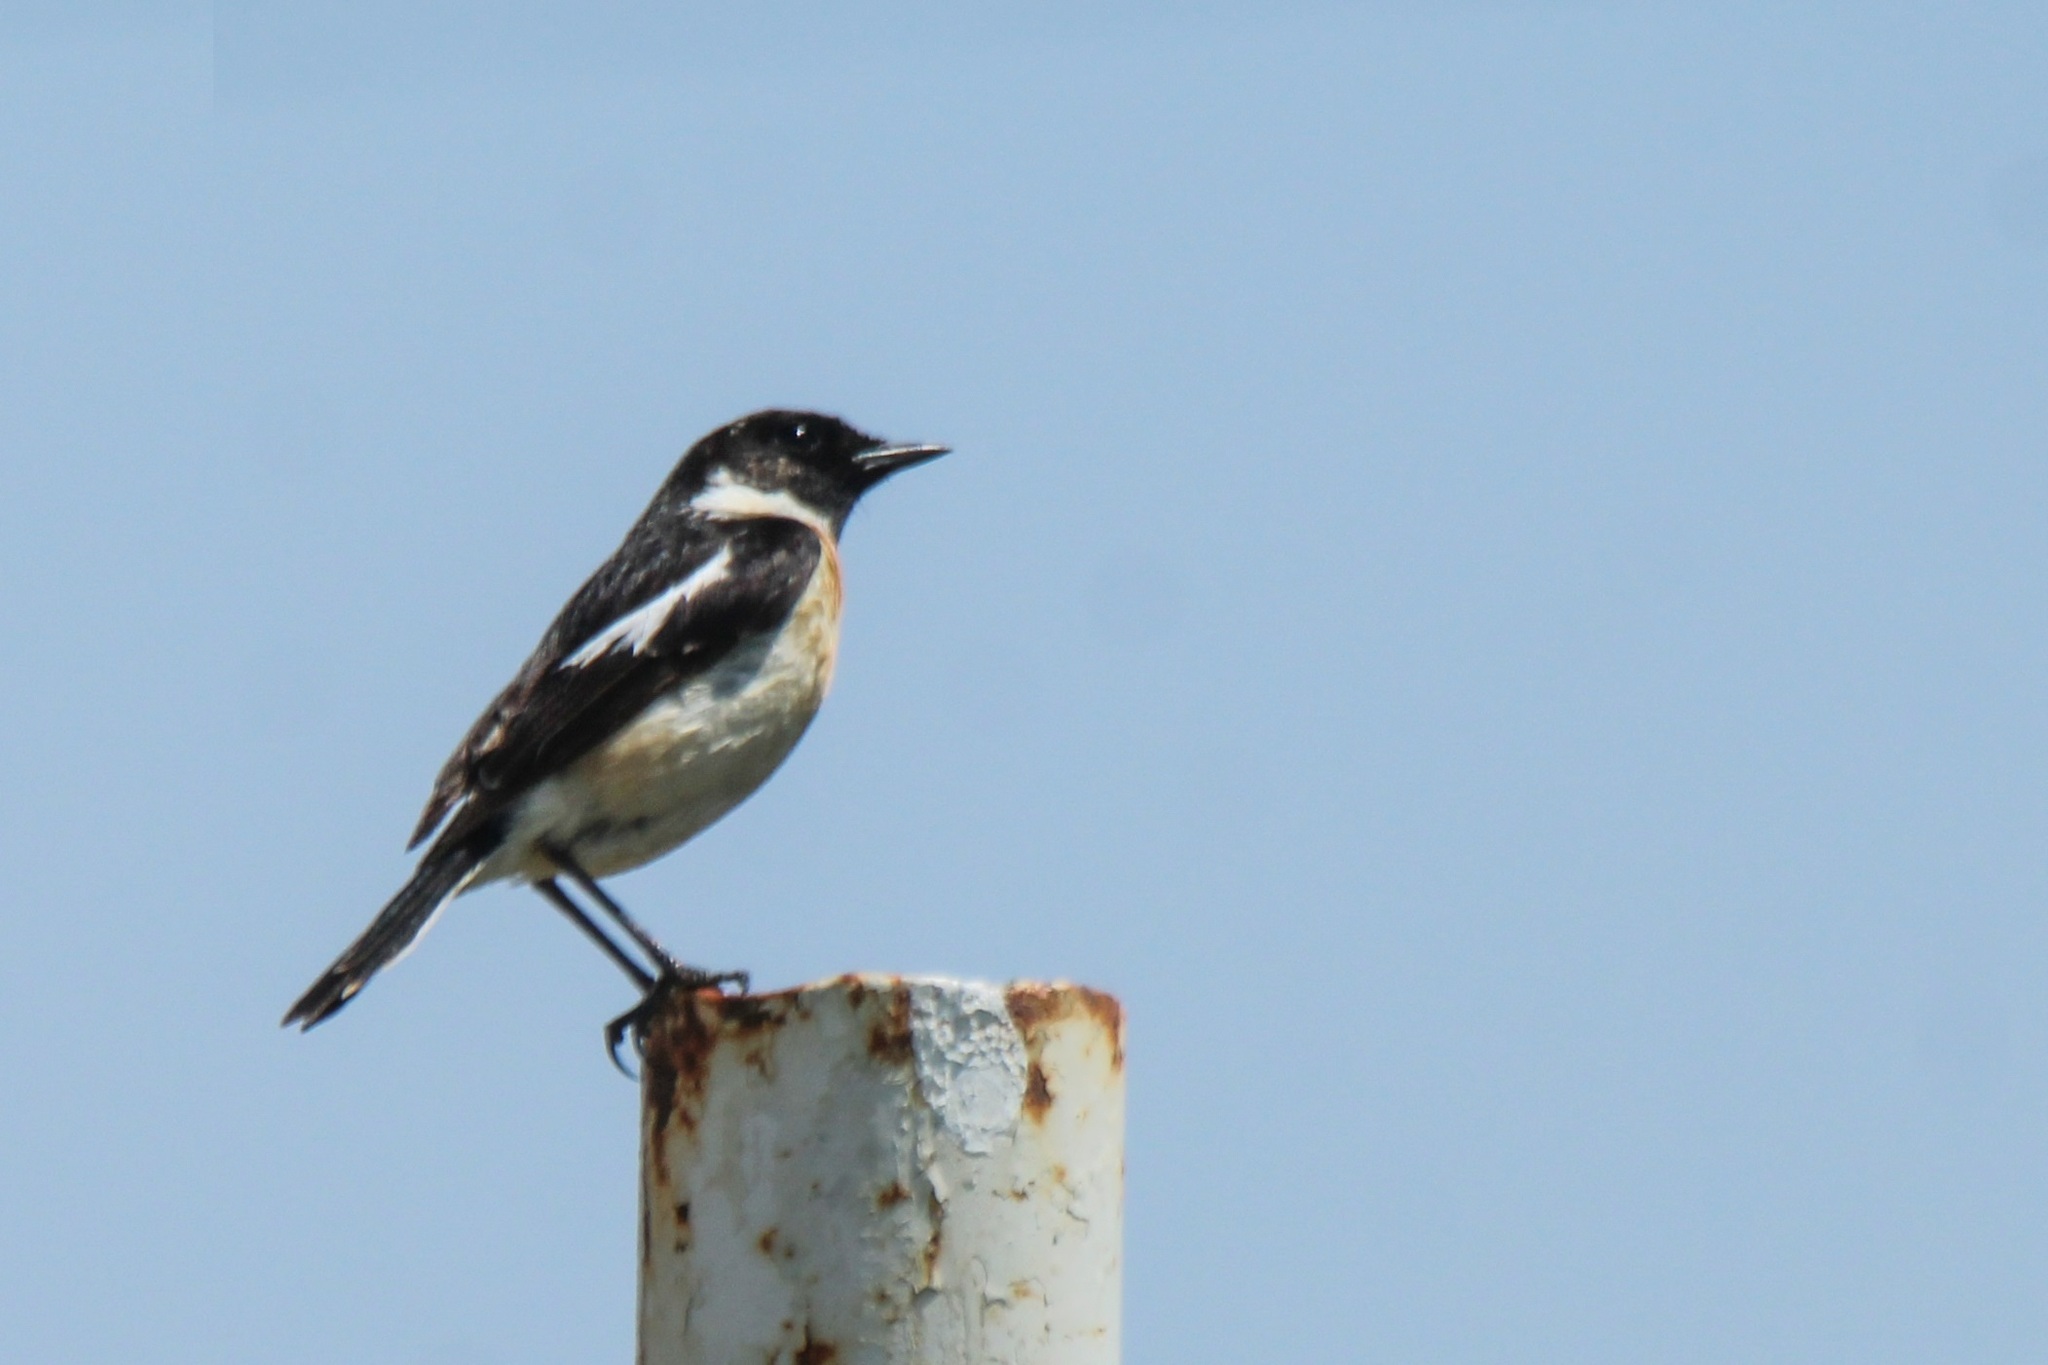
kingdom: Animalia
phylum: Chordata
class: Aves
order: Passeriformes
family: Muscicapidae
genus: Saxicola
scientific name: Saxicola stejnegeri
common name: Stejneger's stonechat
